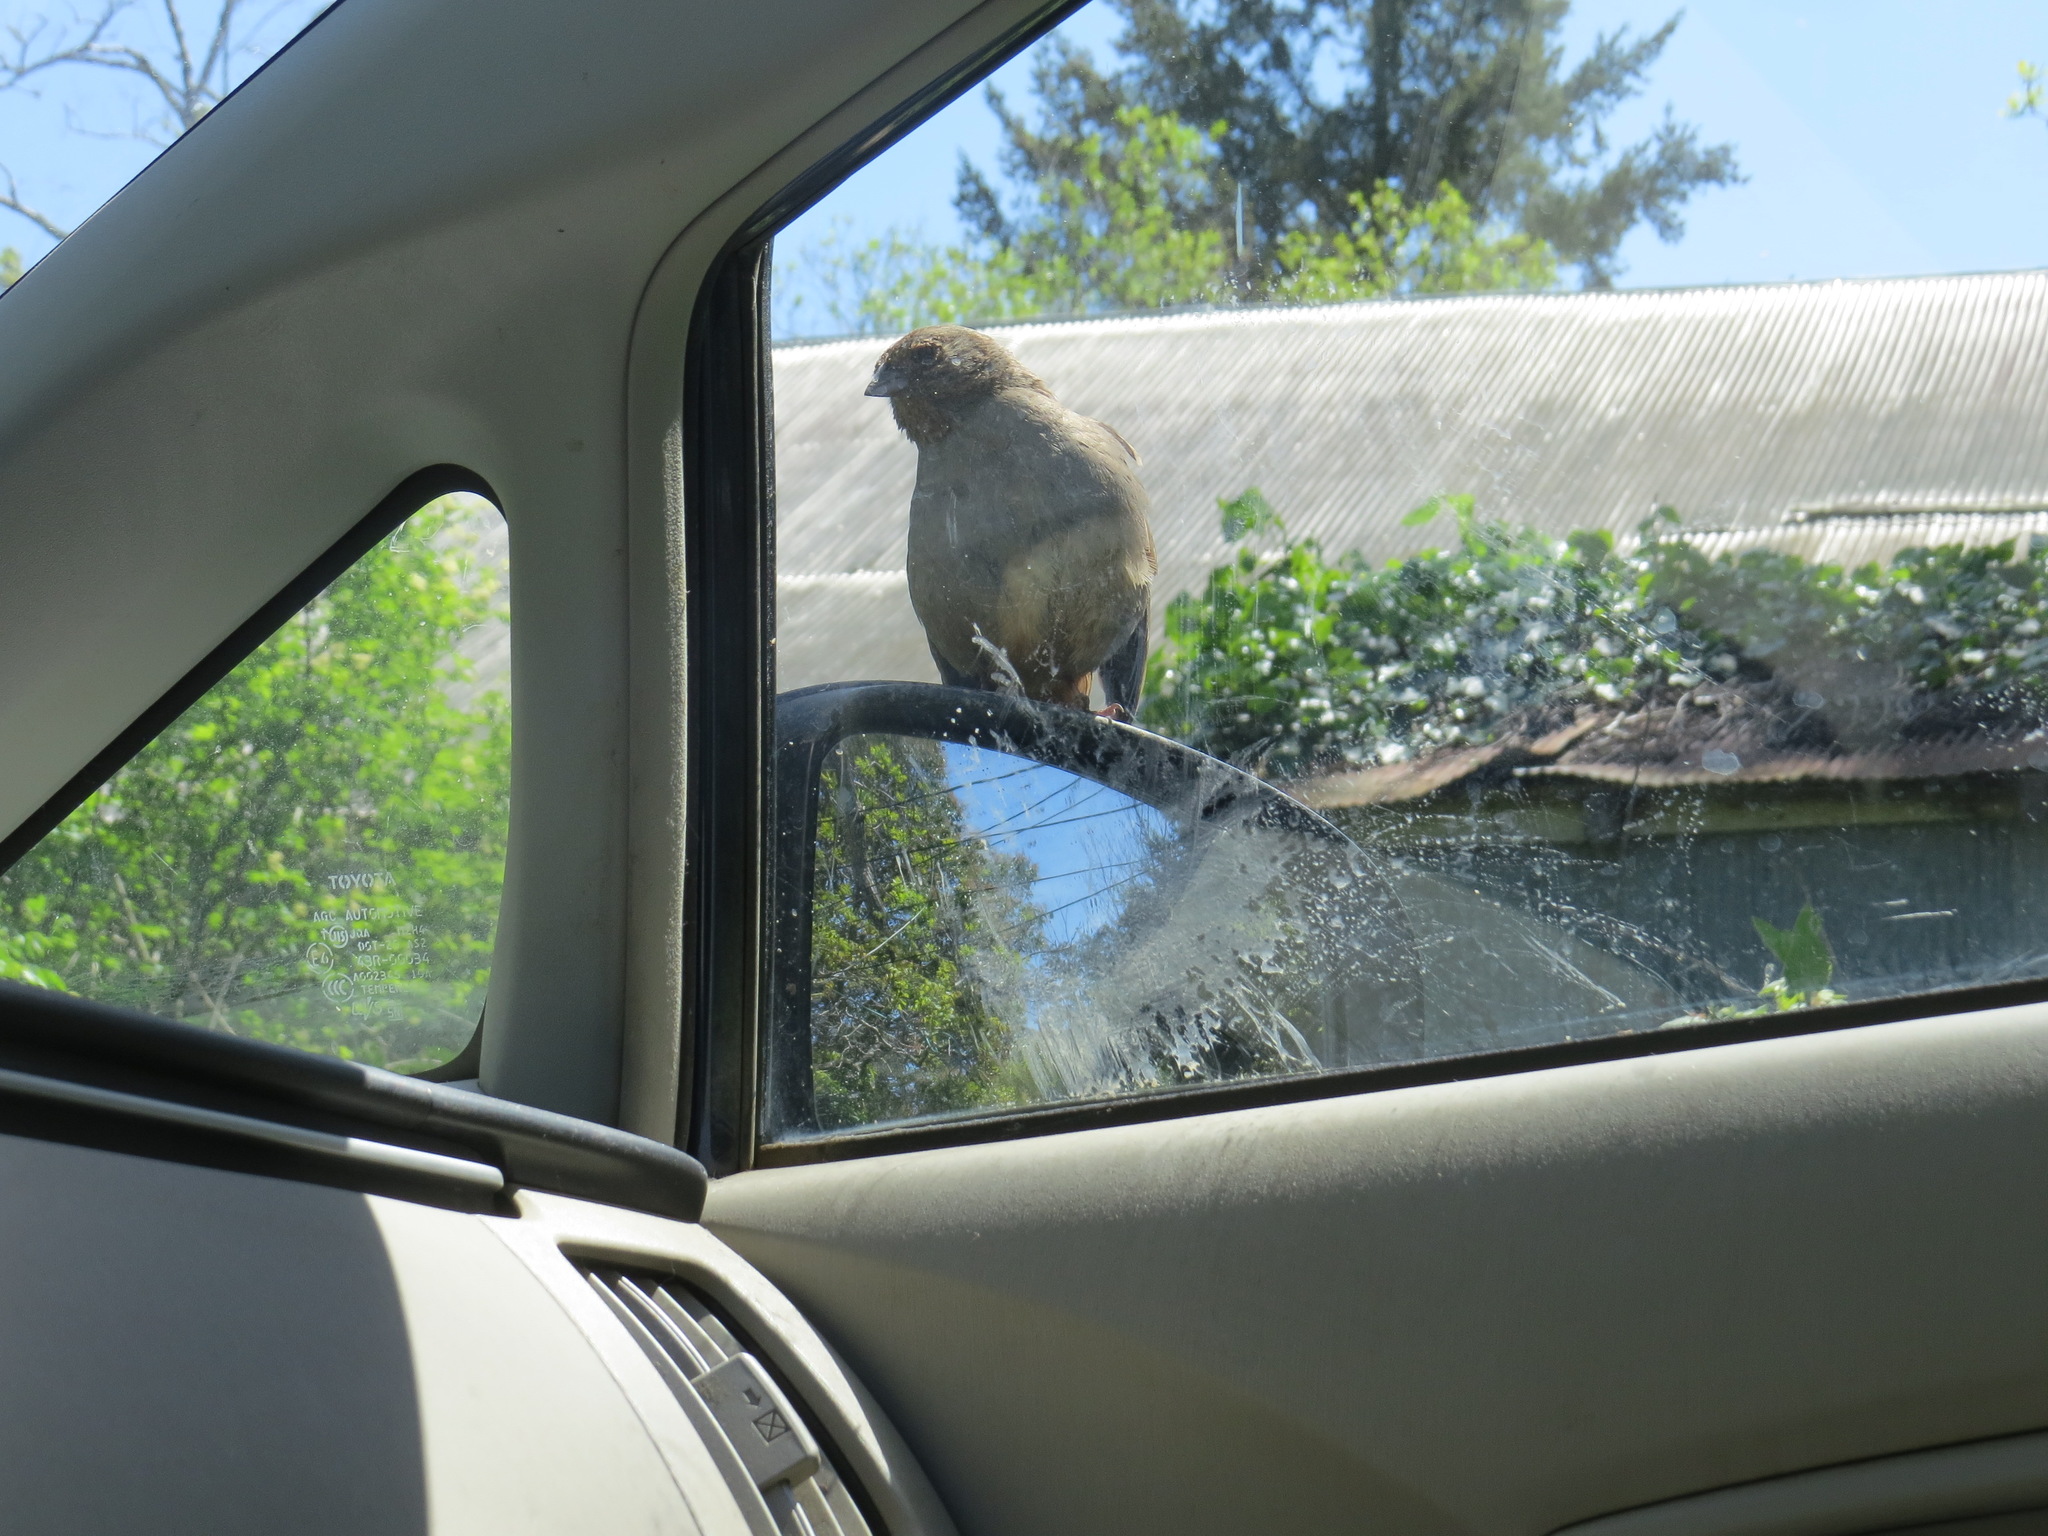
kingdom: Animalia
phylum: Chordata
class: Aves
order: Passeriformes
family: Passerellidae
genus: Melozone
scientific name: Melozone crissalis
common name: California towhee
